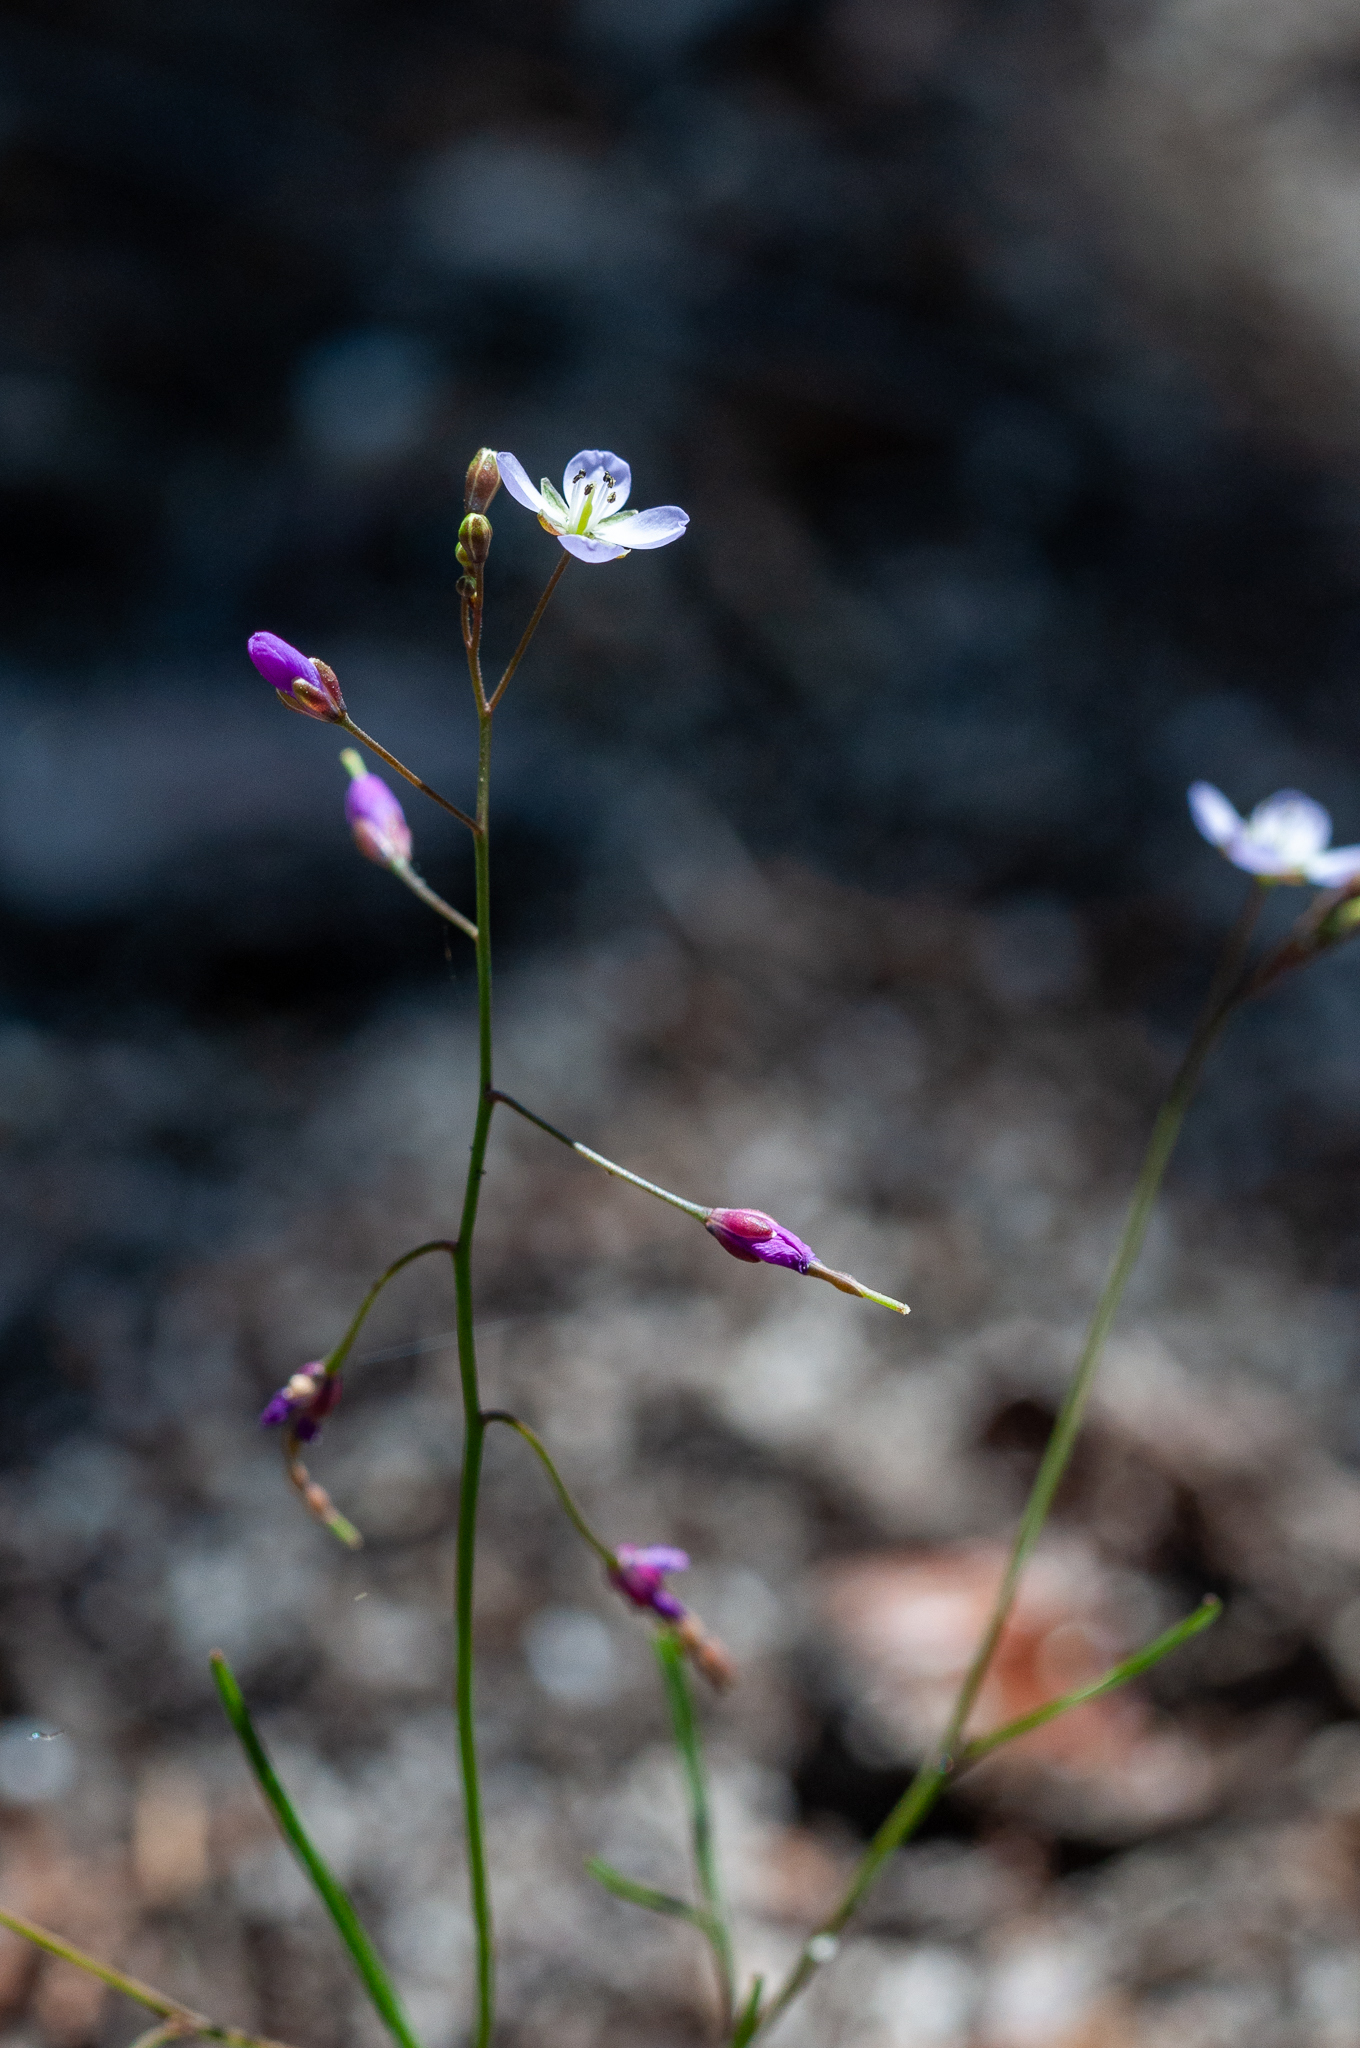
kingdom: Plantae
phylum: Tracheophyta
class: Magnoliopsida
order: Brassicales
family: Brassicaceae
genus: Heliophila
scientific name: Heliophila pinnata
